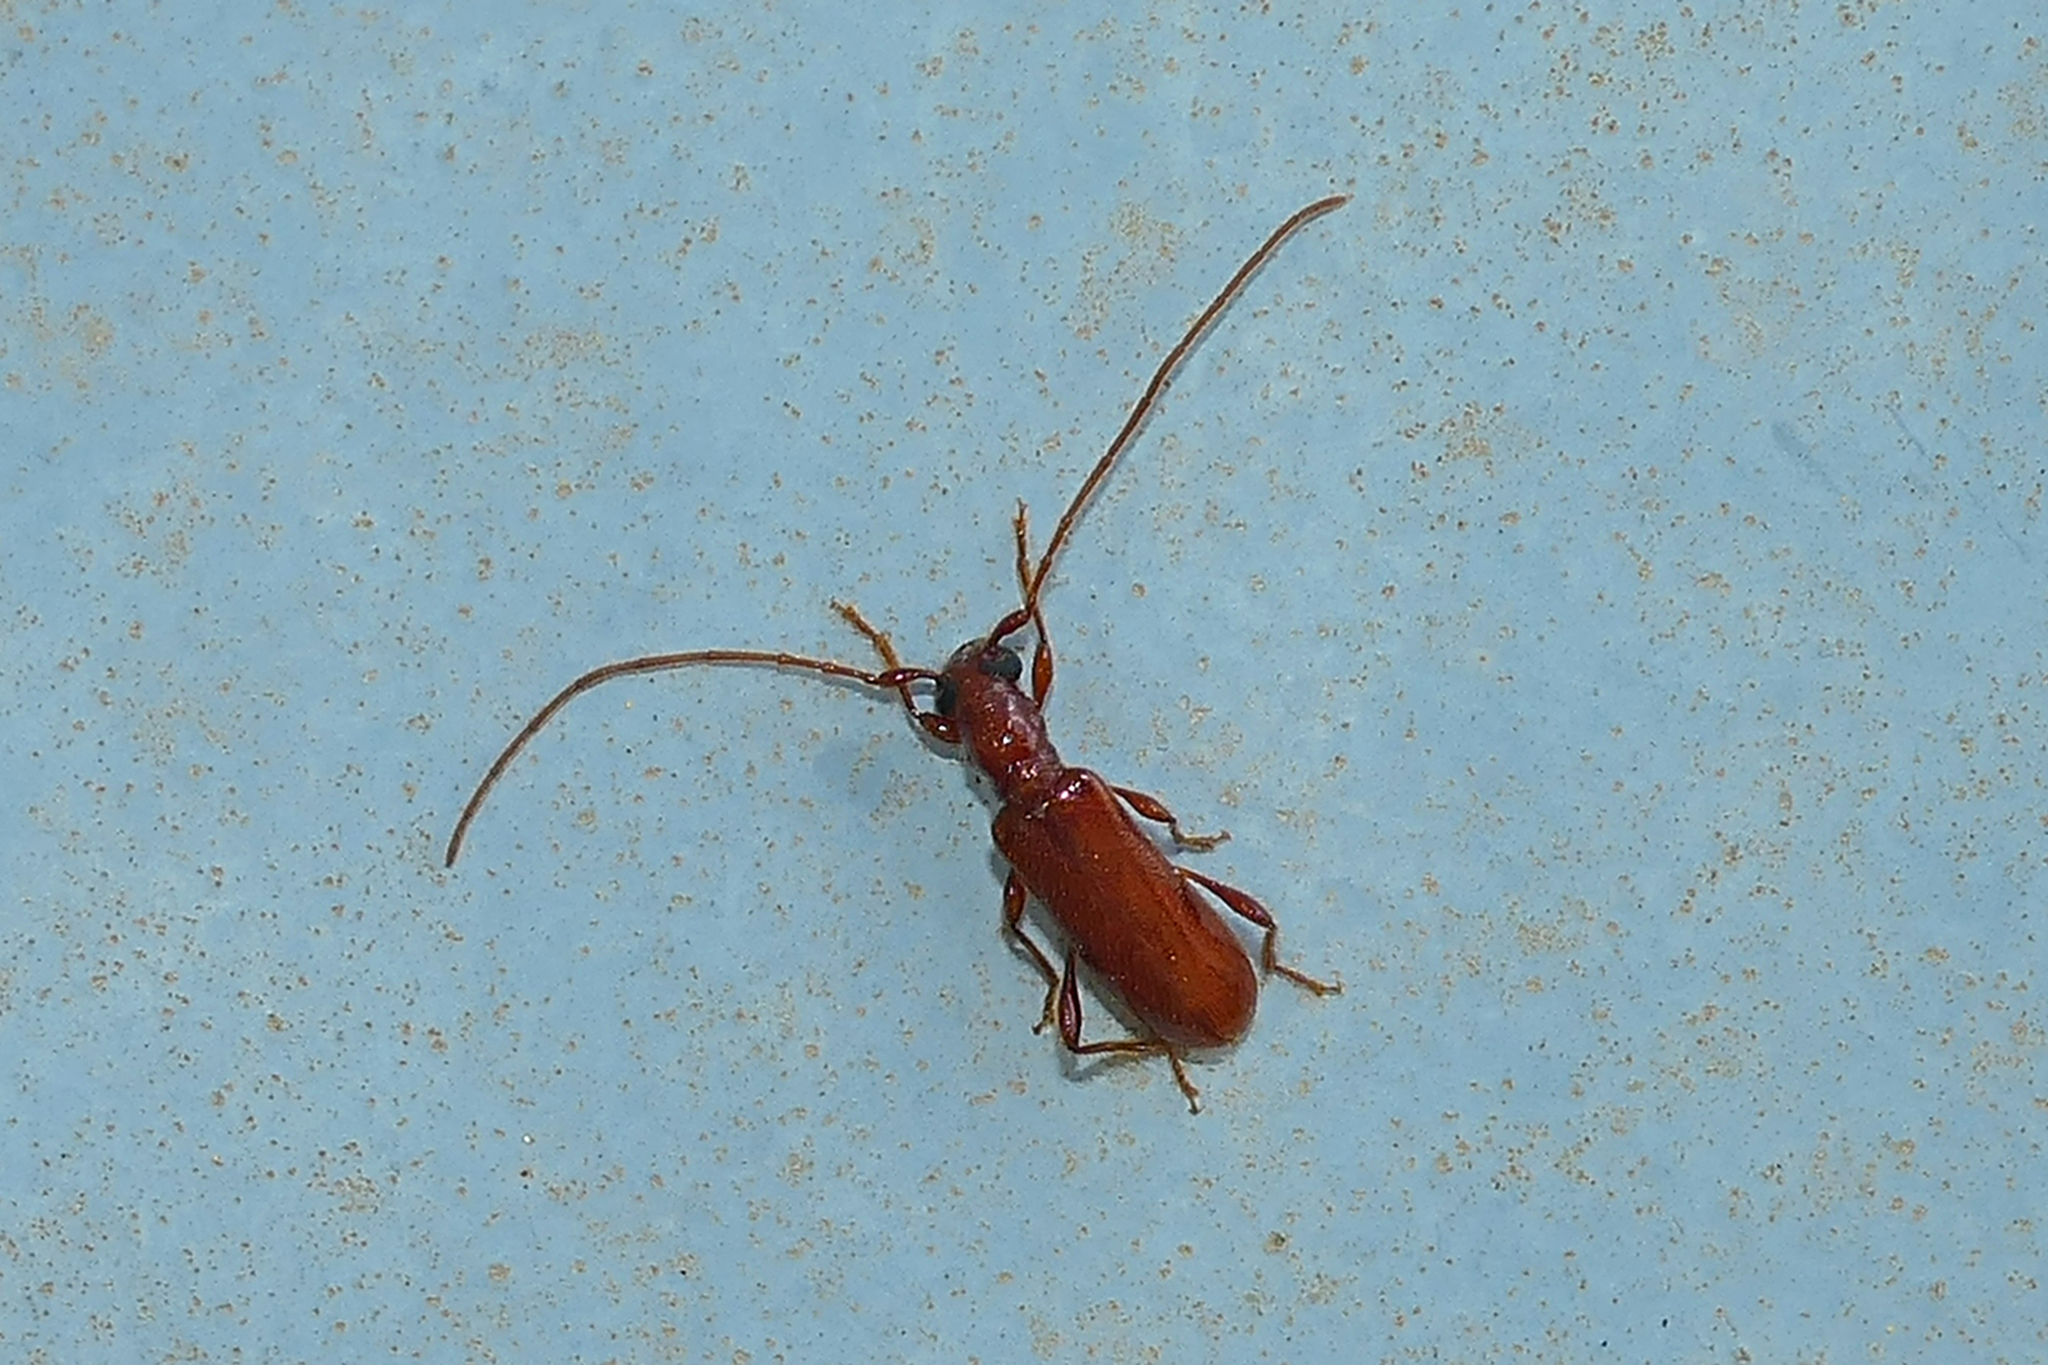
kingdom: Animalia
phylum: Arthropoda
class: Insecta
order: Coleoptera
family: Cerambycidae
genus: Obrium
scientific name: Obrium rufulum
